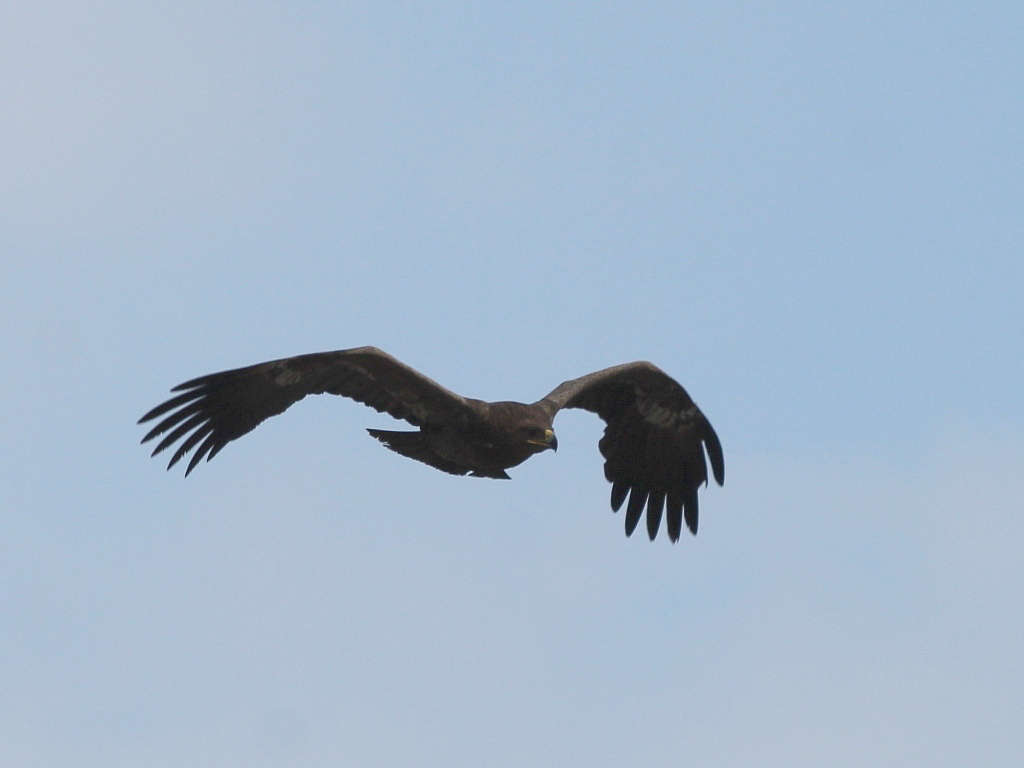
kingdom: Animalia
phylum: Chordata
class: Aves
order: Accipitriformes
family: Accipitridae
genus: Aquila
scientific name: Aquila nipalensis
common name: Steppe eagle
